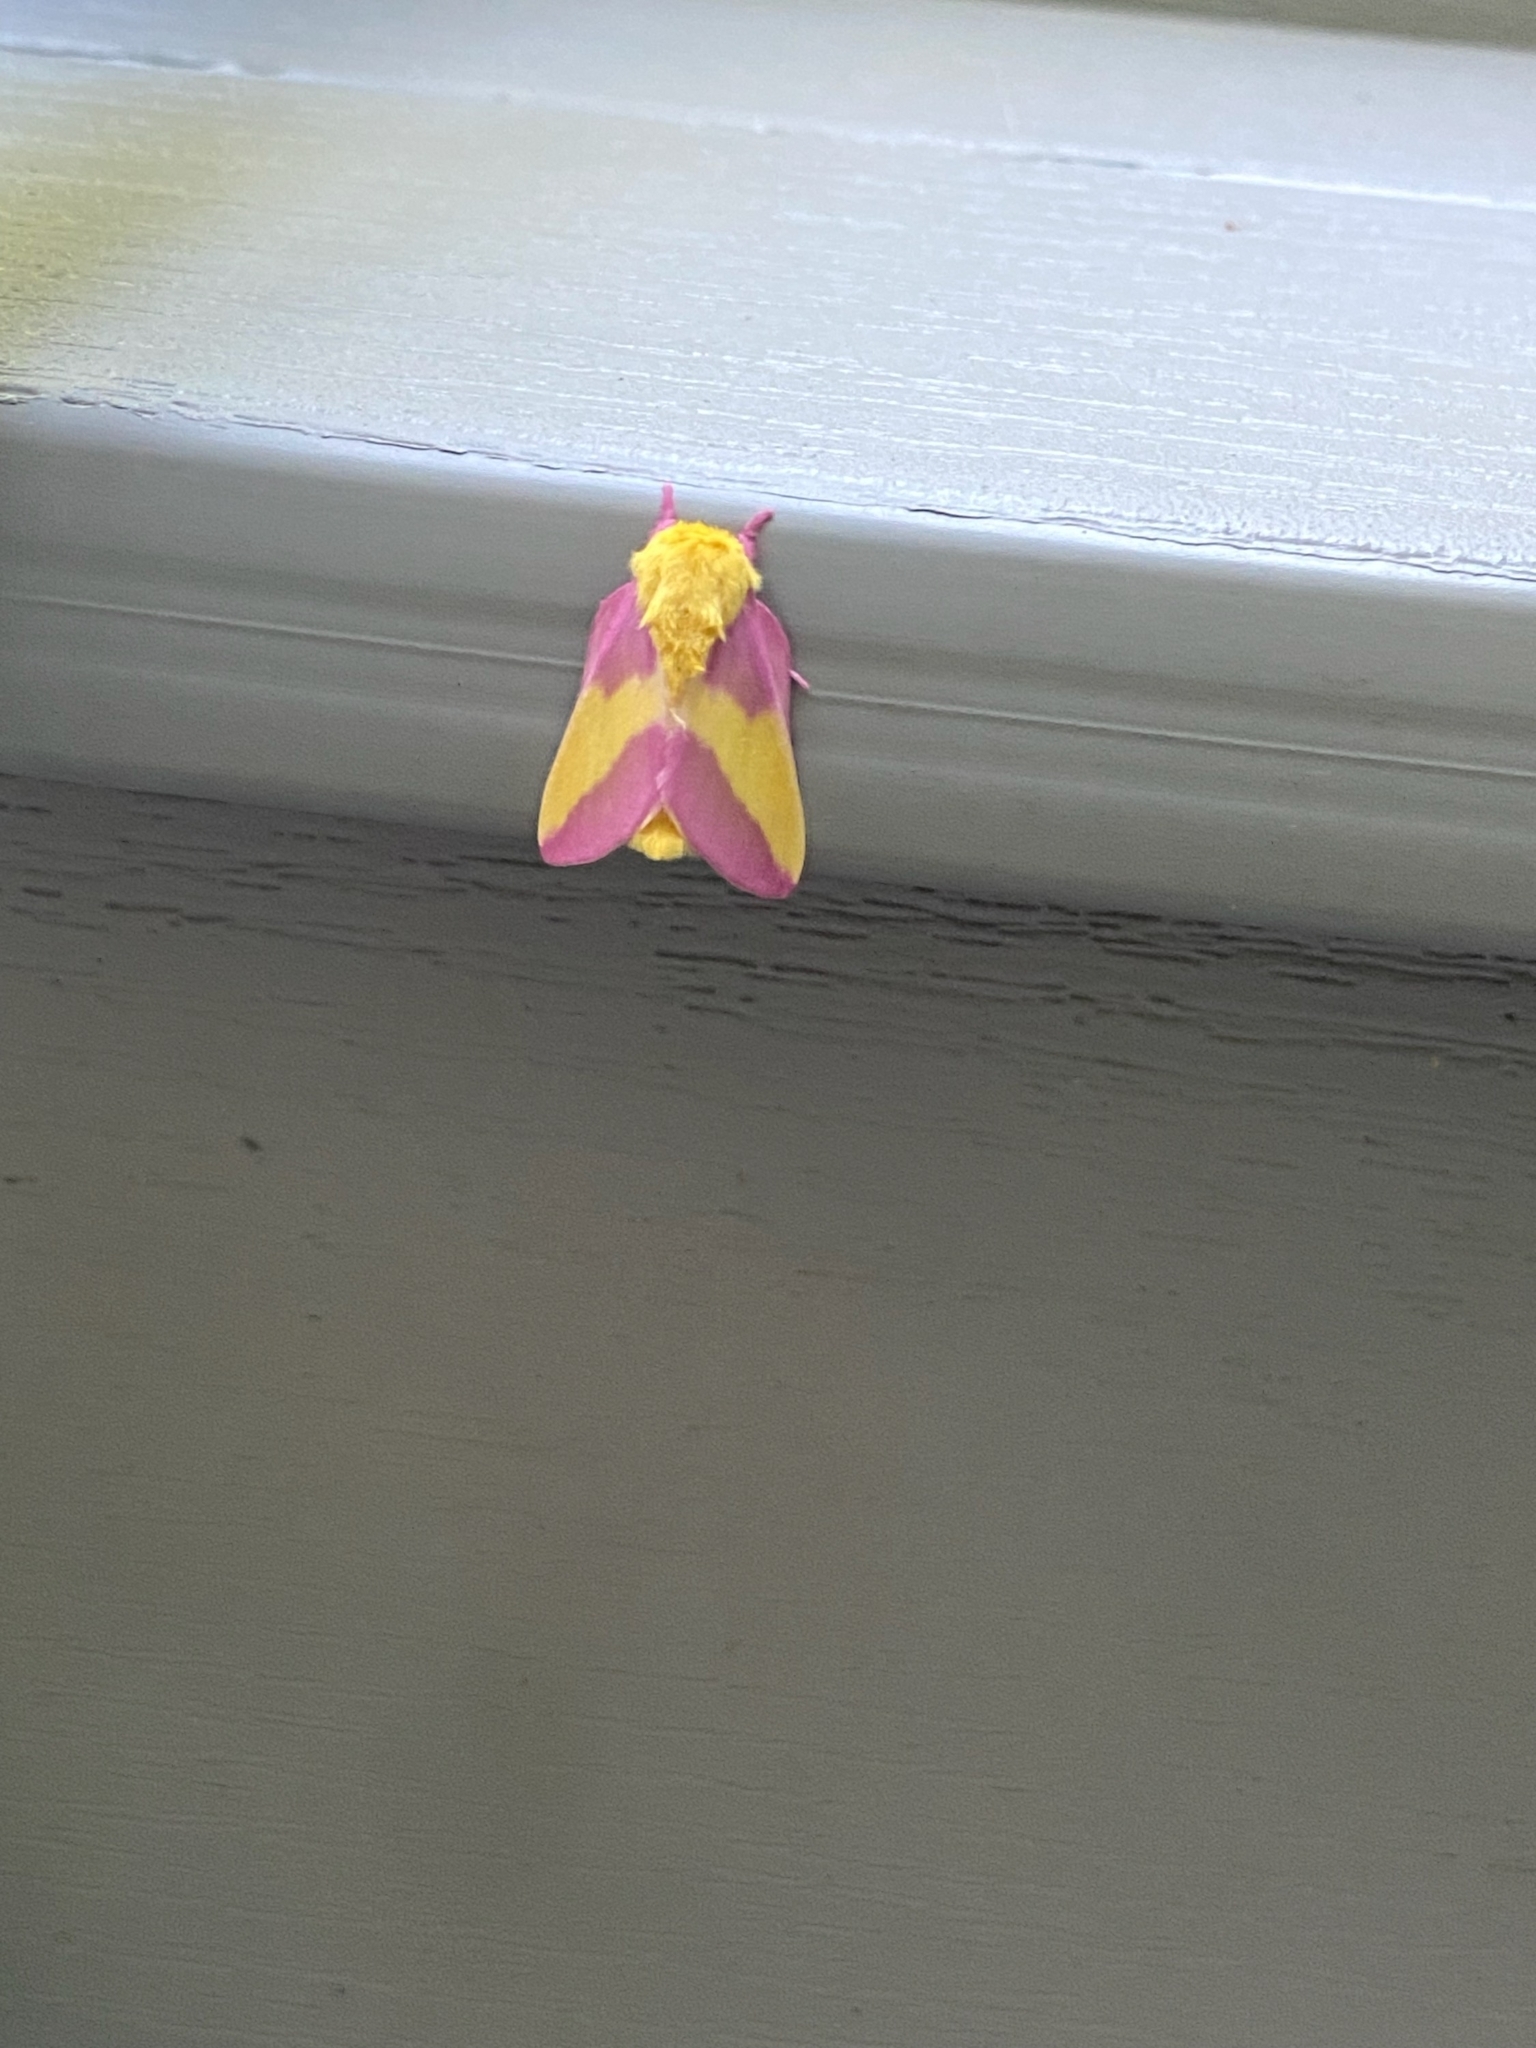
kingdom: Animalia
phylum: Arthropoda
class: Insecta
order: Lepidoptera
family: Saturniidae
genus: Dryocampa
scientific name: Dryocampa rubicunda
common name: Rosy maple moth
